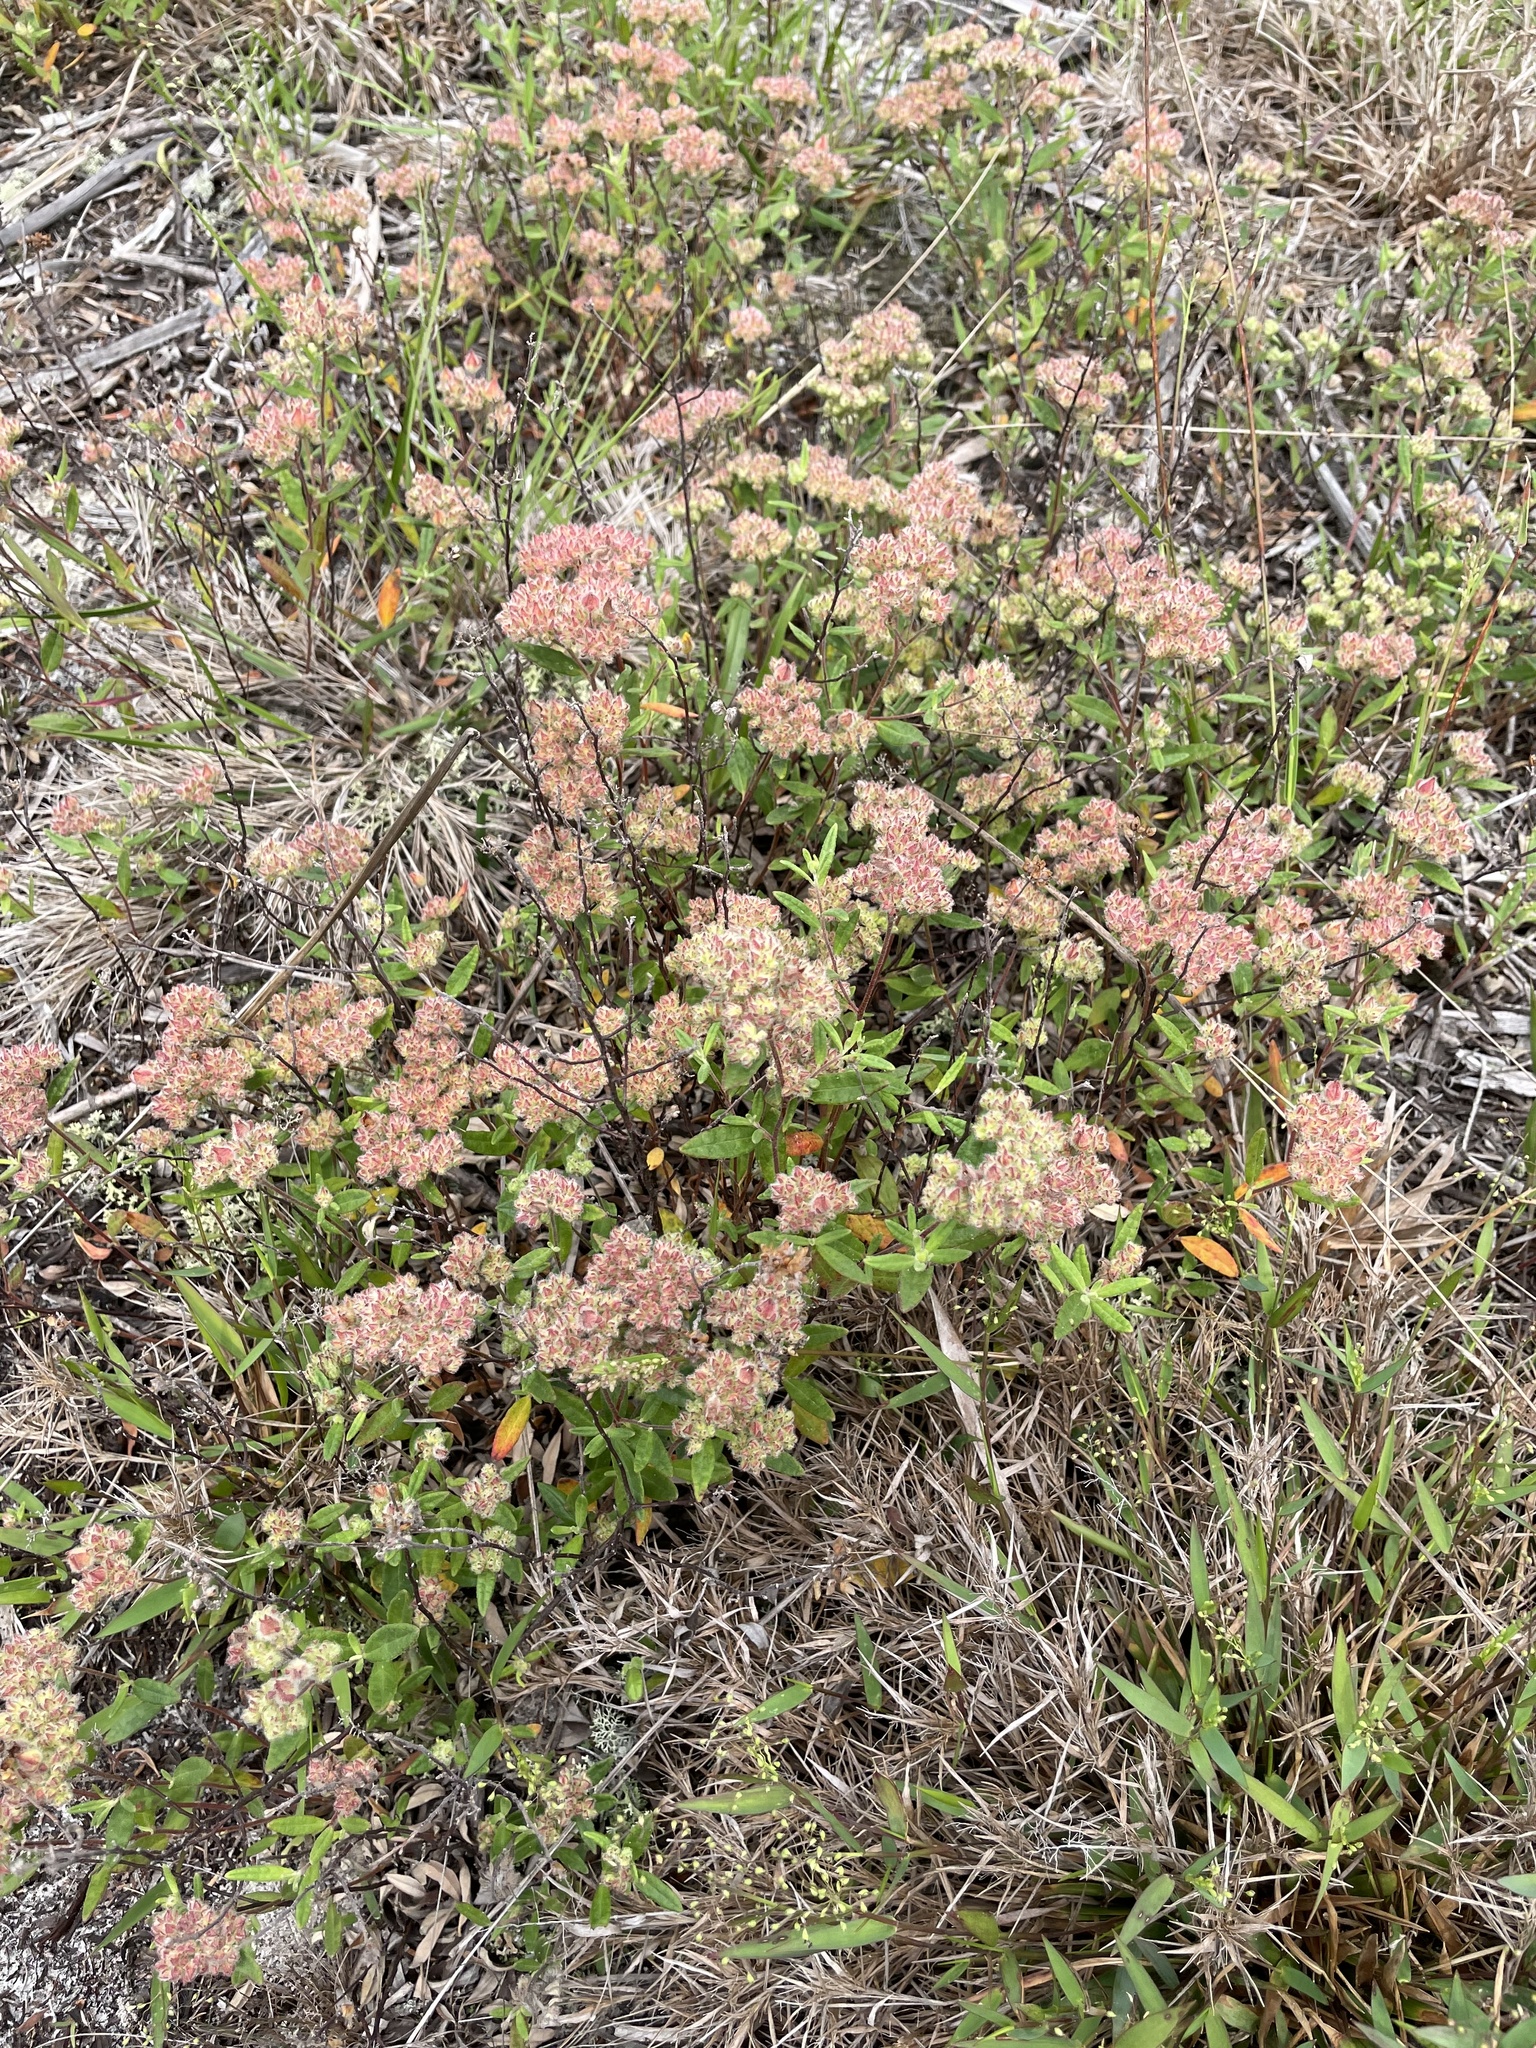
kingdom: Plantae
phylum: Tracheophyta
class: Magnoliopsida
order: Malvales
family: Cistaceae
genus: Crocanthemum
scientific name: Crocanthemum corymbosum
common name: Pinebarren sun-rose
